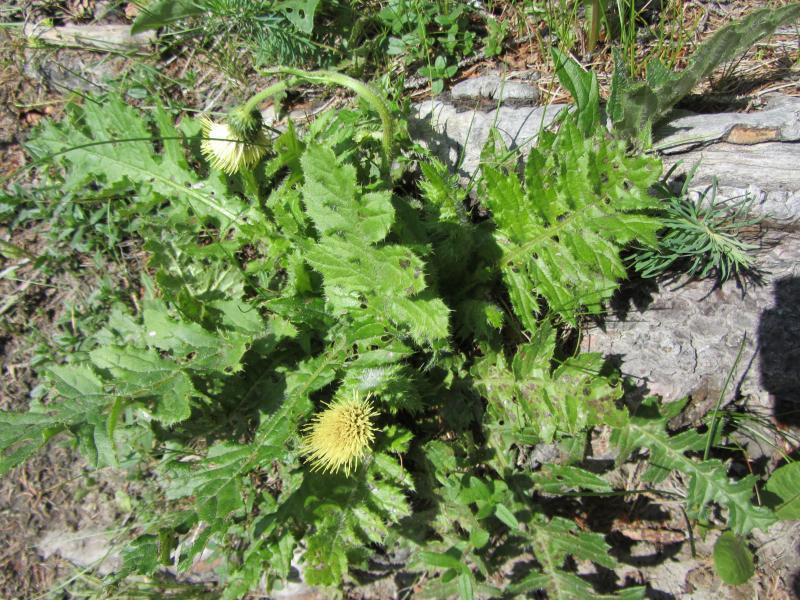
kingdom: Plantae
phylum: Tracheophyta
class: Magnoliopsida
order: Asterales
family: Asteraceae
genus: Cirsium
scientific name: Cirsium erisithales
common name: Yellow thistle
